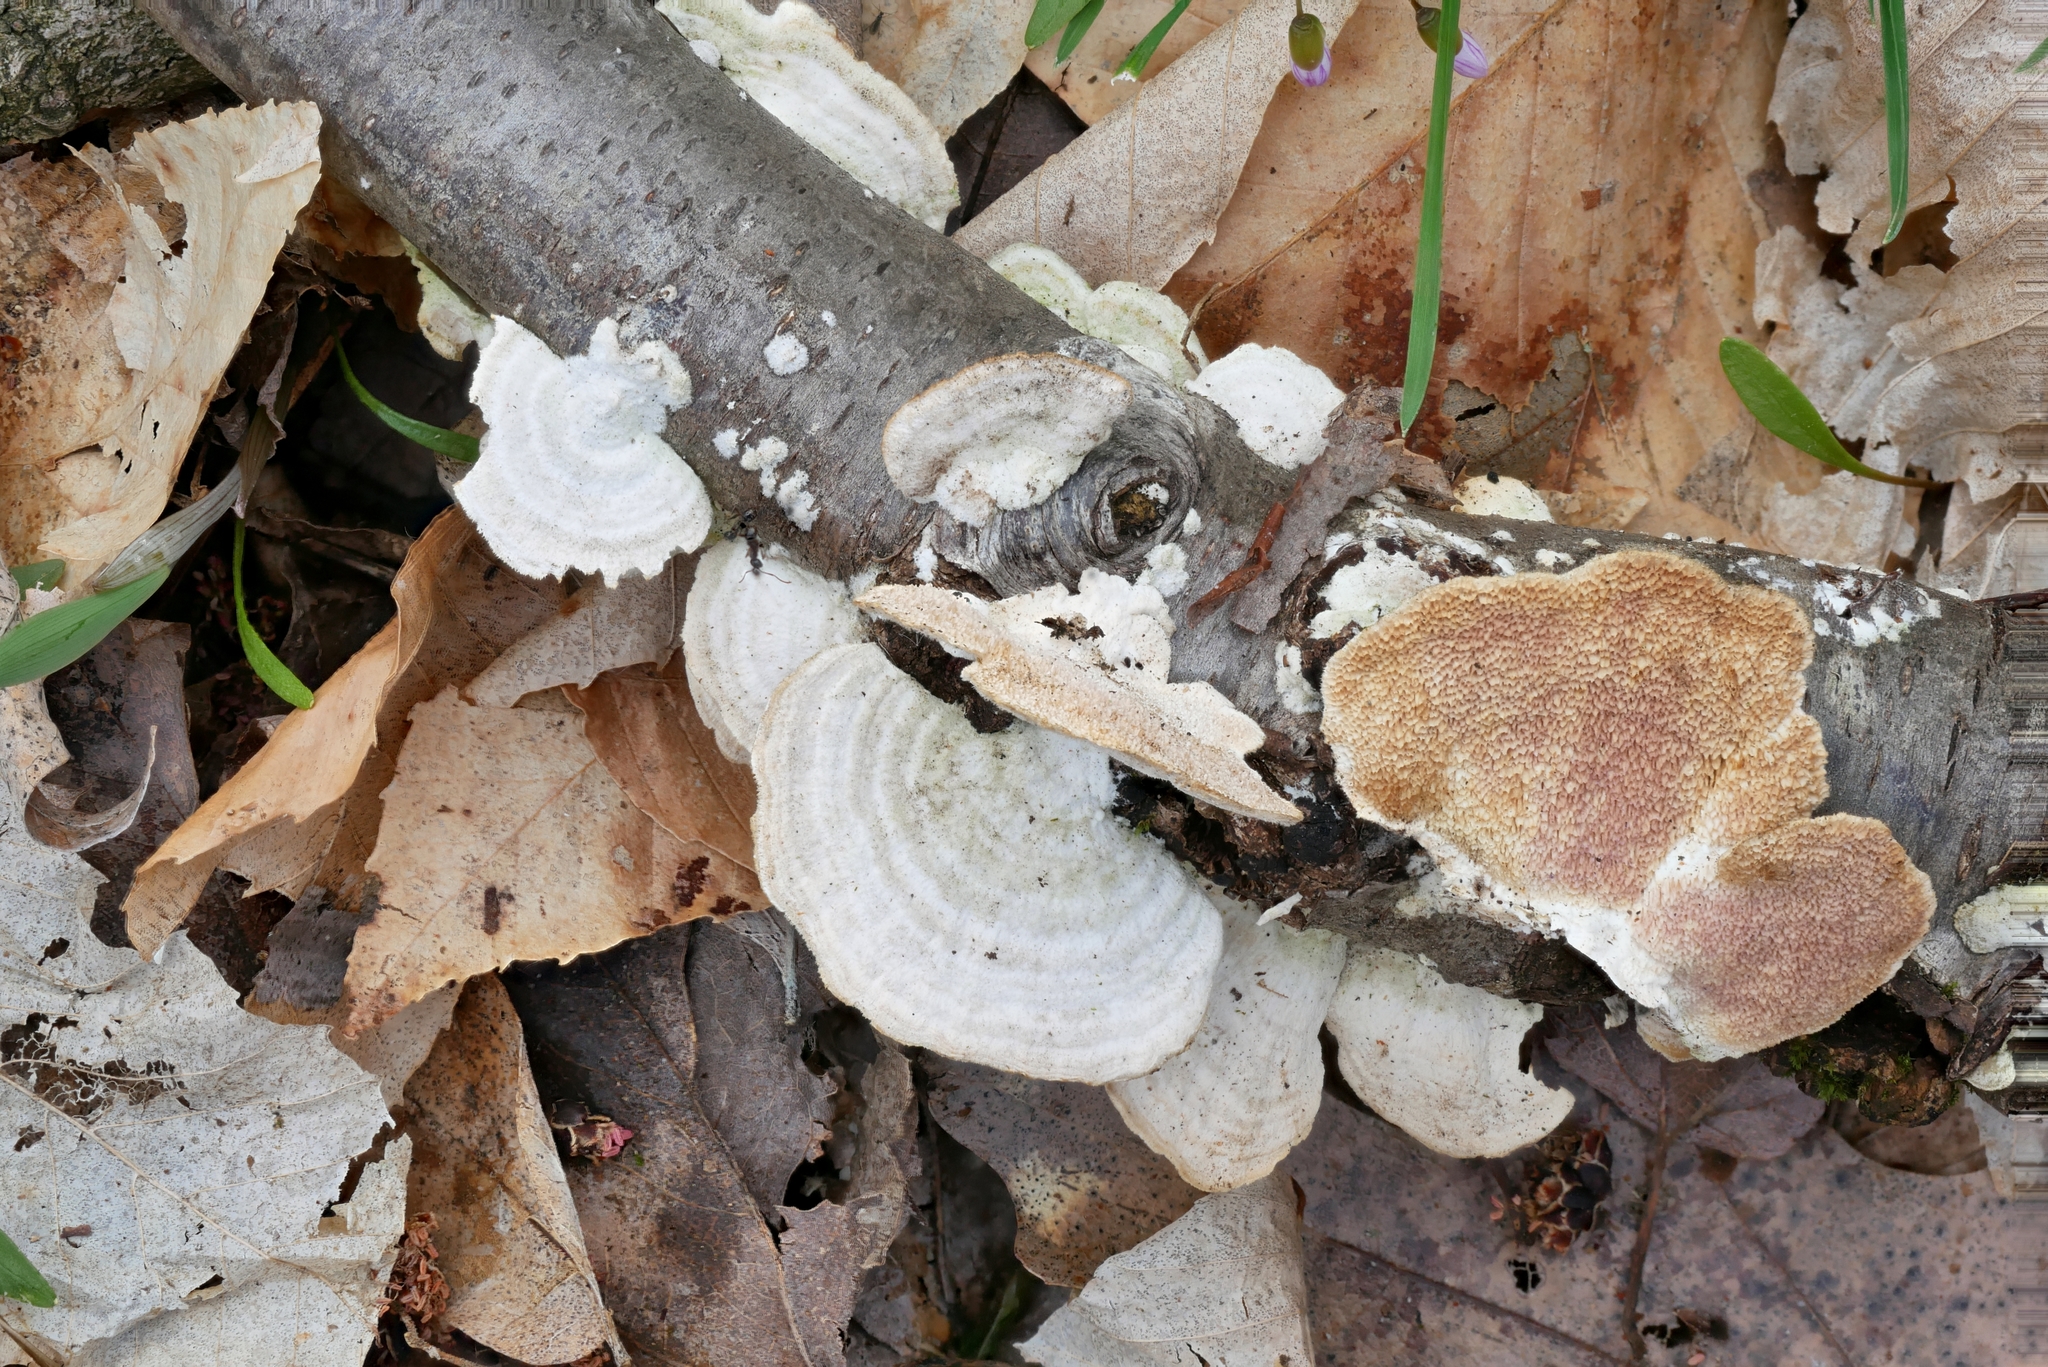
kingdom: Fungi
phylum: Basidiomycota
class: Agaricomycetes
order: Hymenochaetales
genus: Trichaptum
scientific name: Trichaptum subchartaceum
